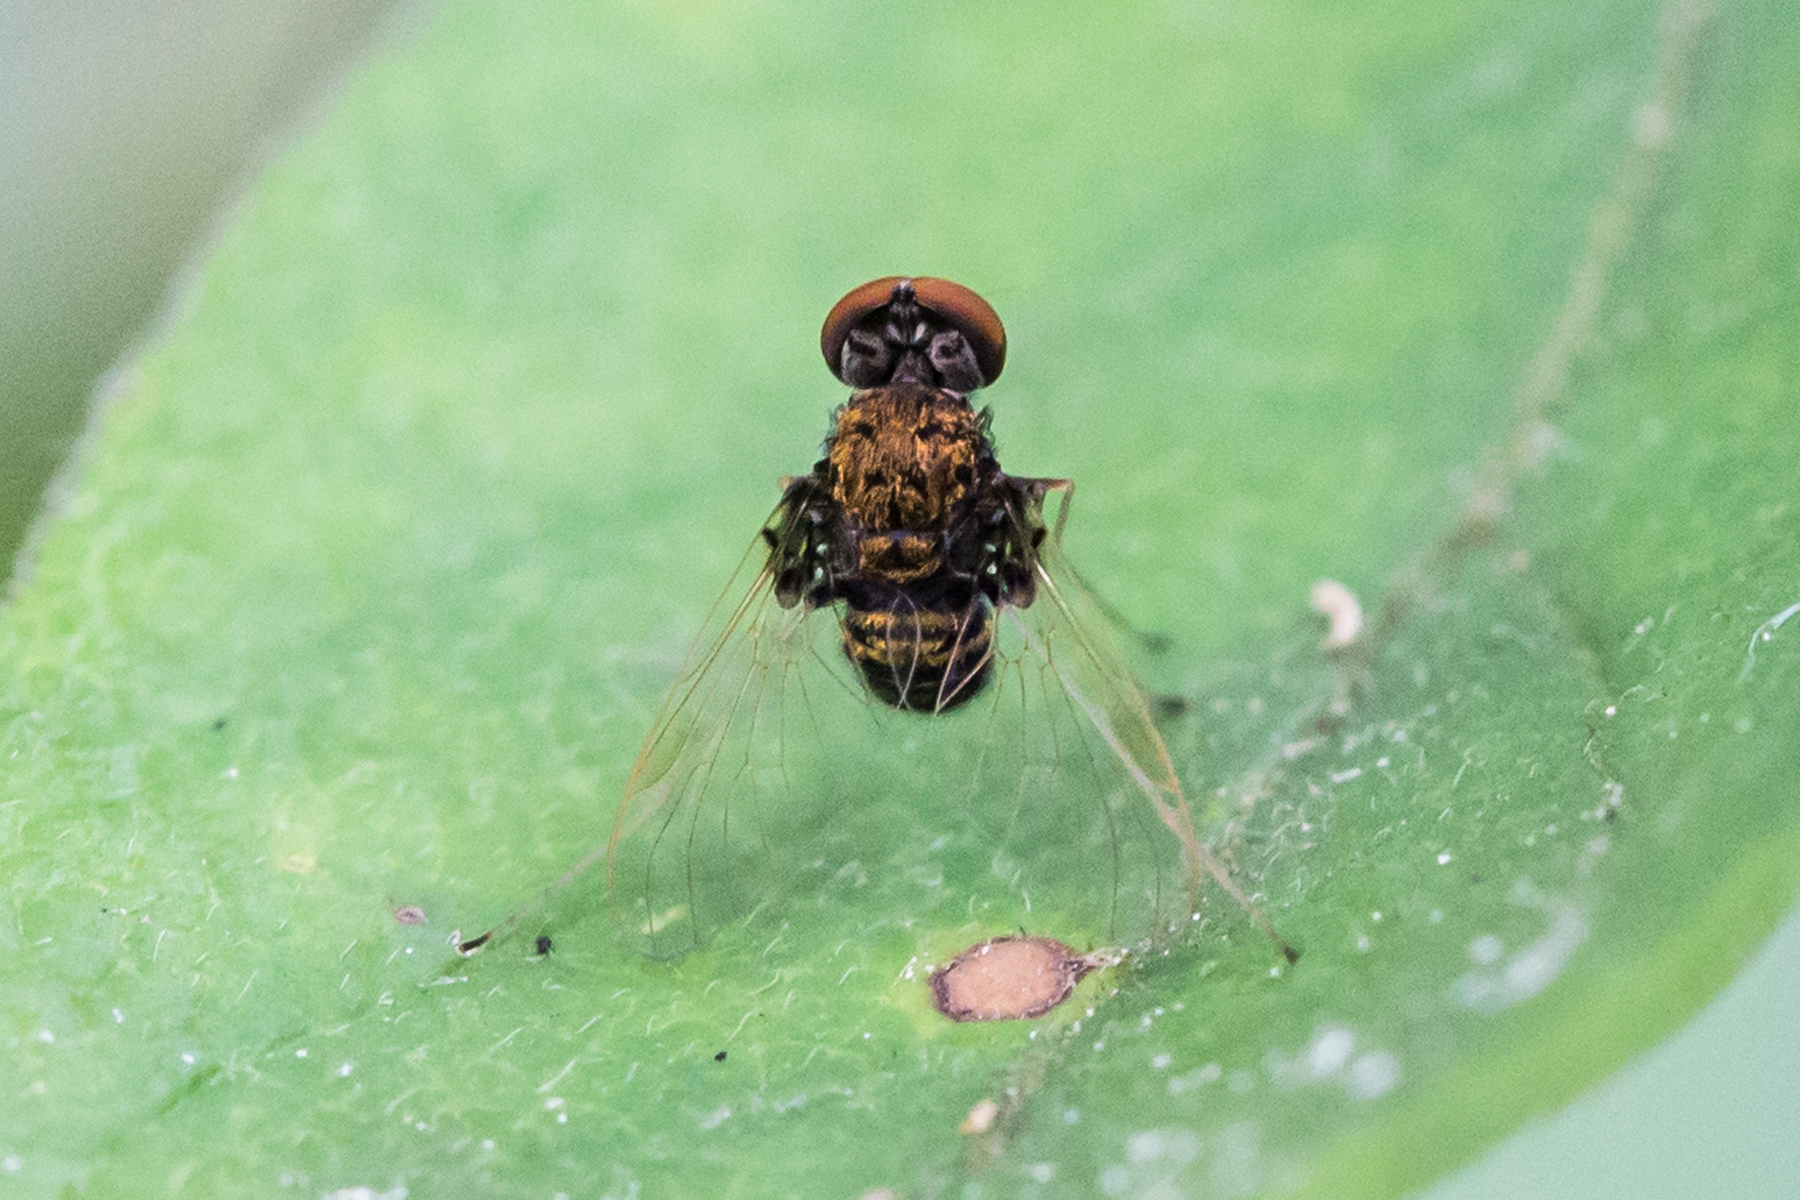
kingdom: Animalia
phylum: Arthropoda
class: Insecta
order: Diptera
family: Rhagionidae
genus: Chrysopilus
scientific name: Chrysopilus basilaris
